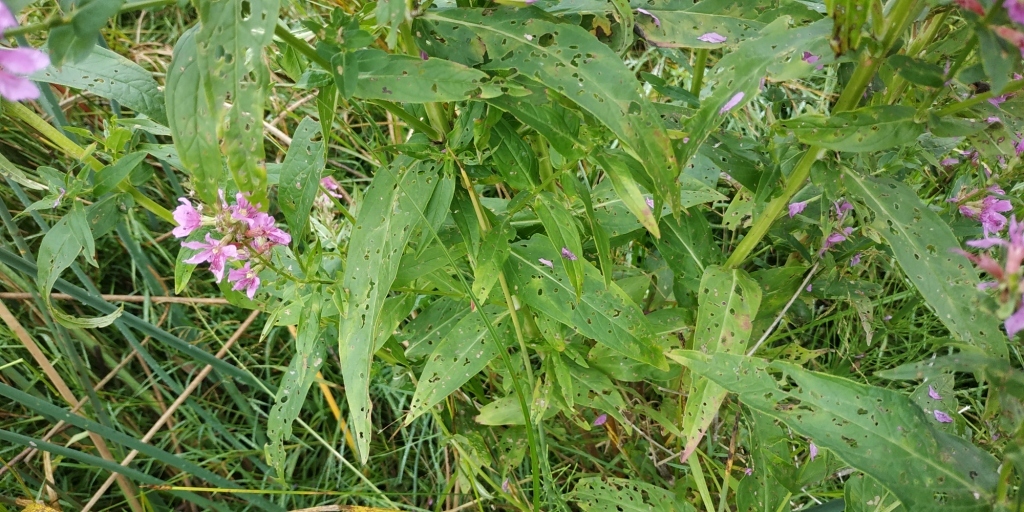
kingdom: Plantae
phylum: Tracheophyta
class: Magnoliopsida
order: Myrtales
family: Lythraceae
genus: Lythrum
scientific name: Lythrum salicaria
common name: Purple loosestrife
